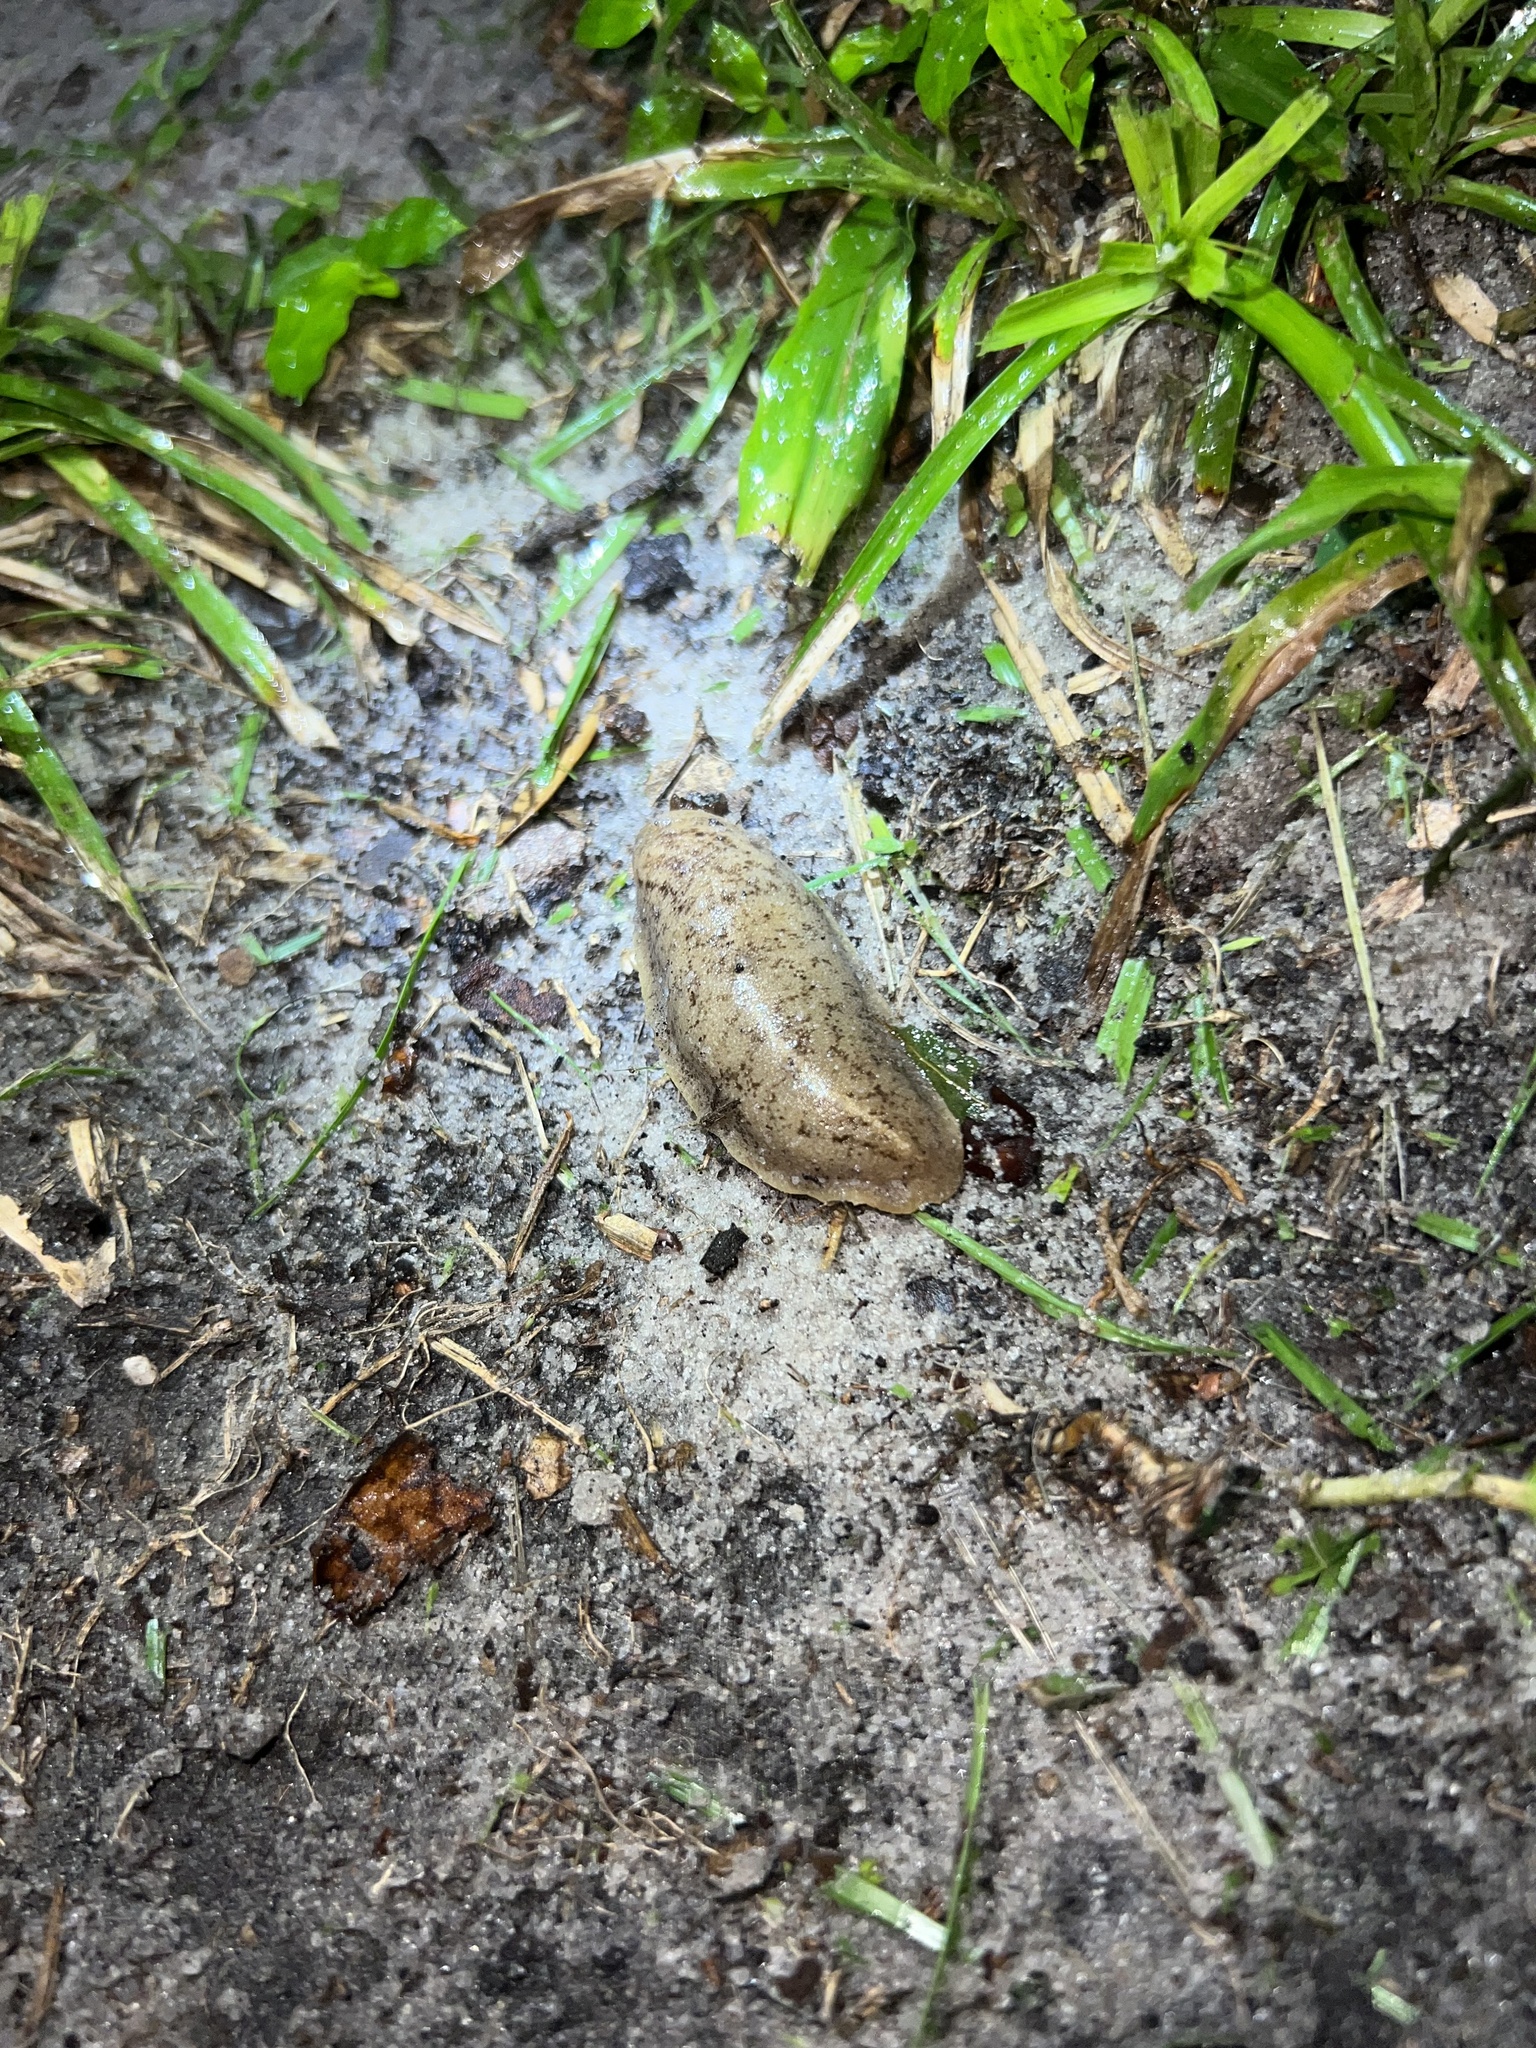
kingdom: Animalia
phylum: Mollusca
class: Gastropoda
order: Systellommatophora
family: Veronicellidae
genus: Leidyula
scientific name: Leidyula floridana
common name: Florida leatherleaf
